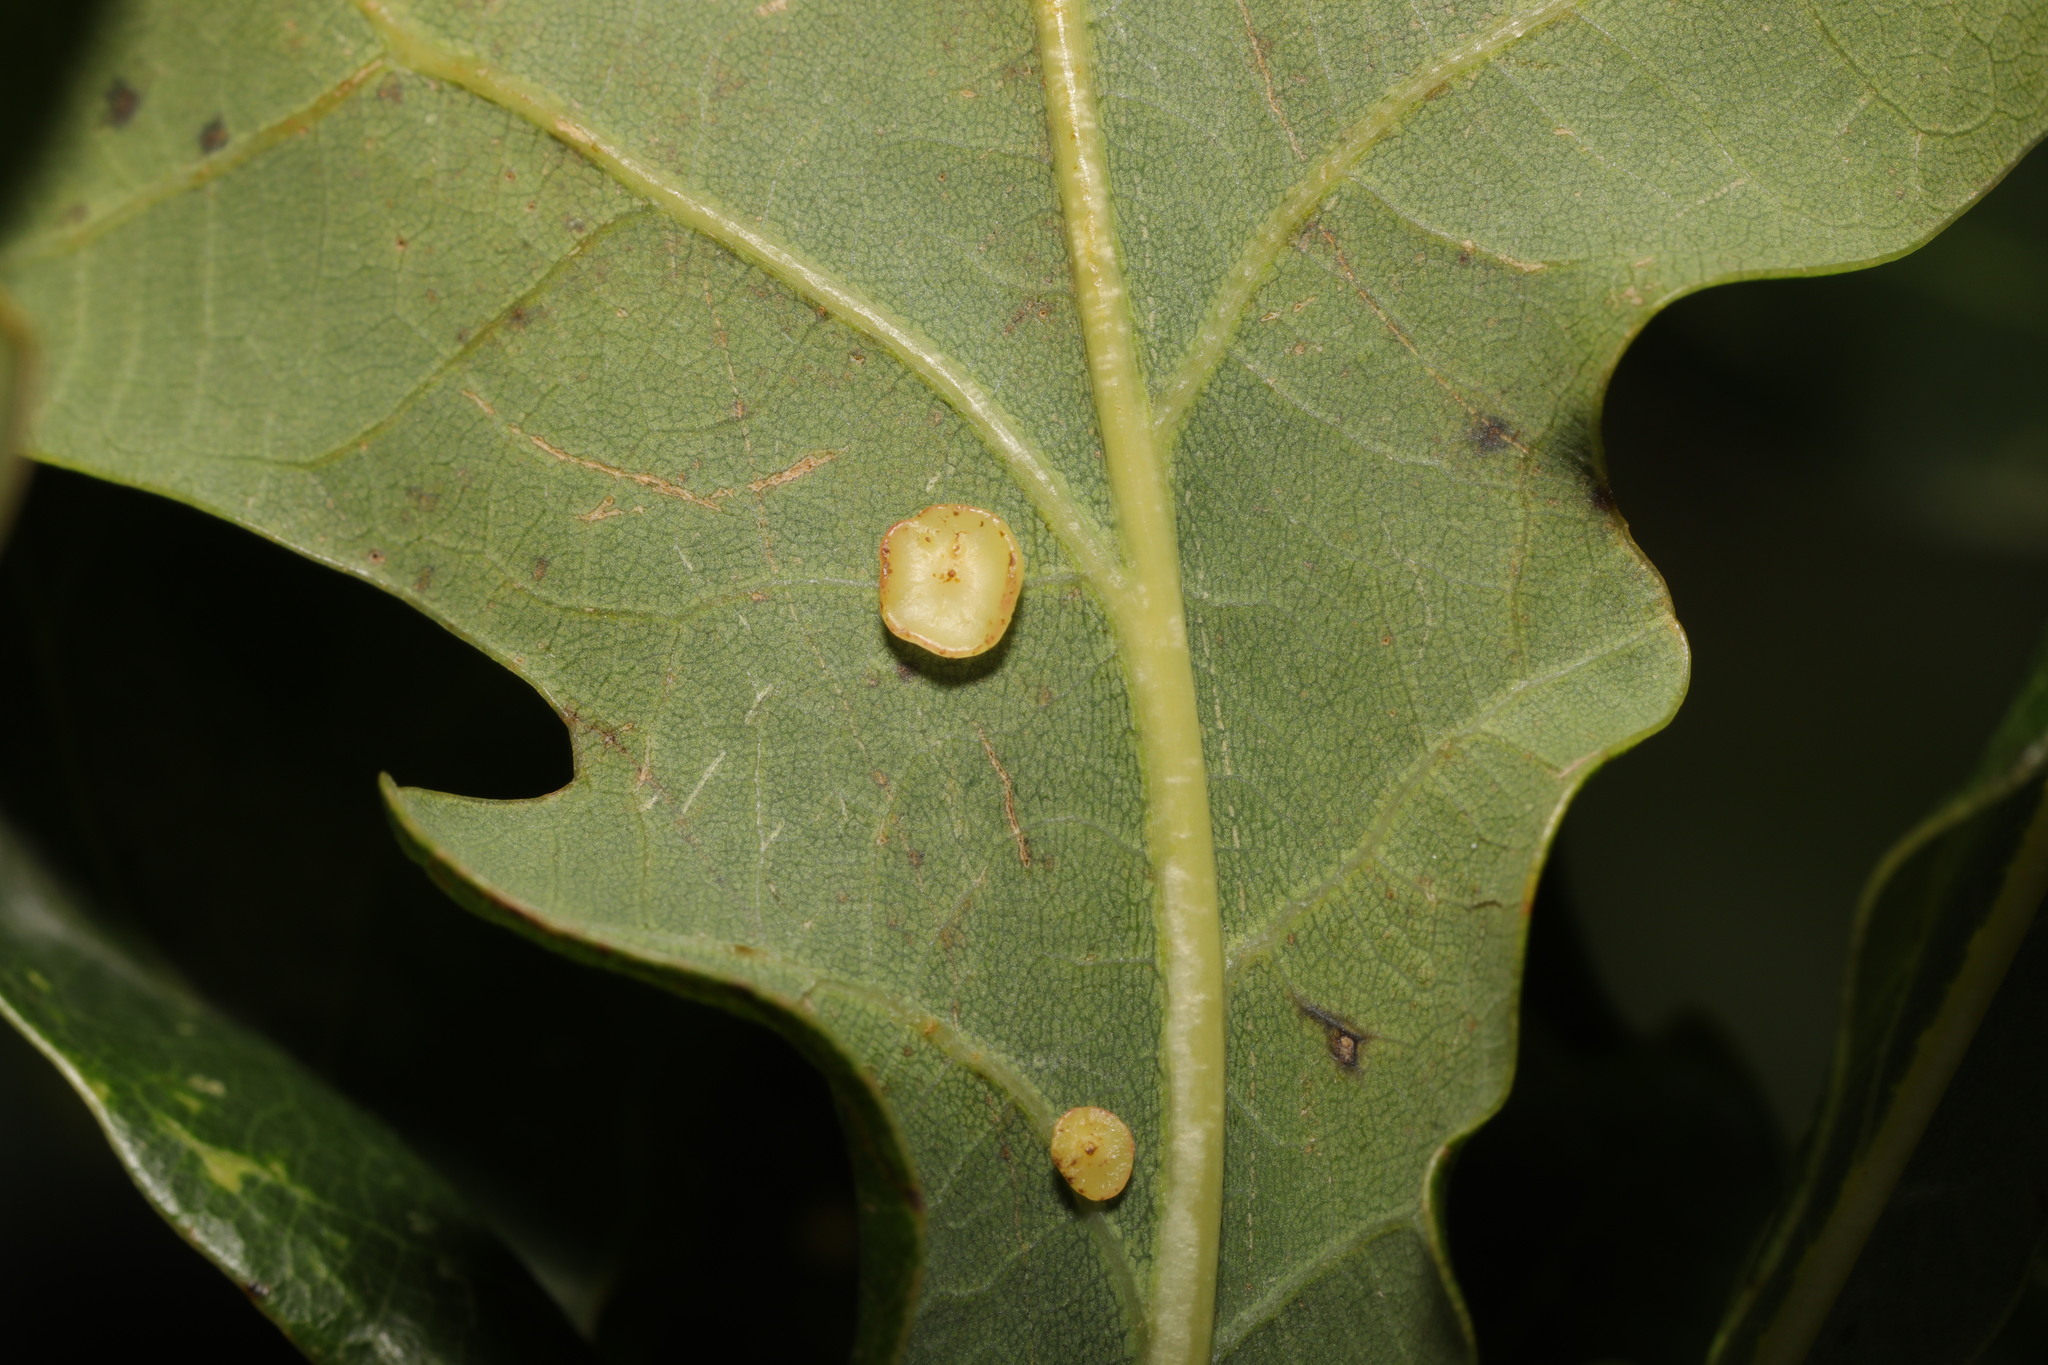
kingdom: Animalia
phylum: Arthropoda
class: Insecta
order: Hymenoptera
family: Cynipidae
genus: Neuroterus
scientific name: Neuroterus albipes
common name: Smooth spangle gall
